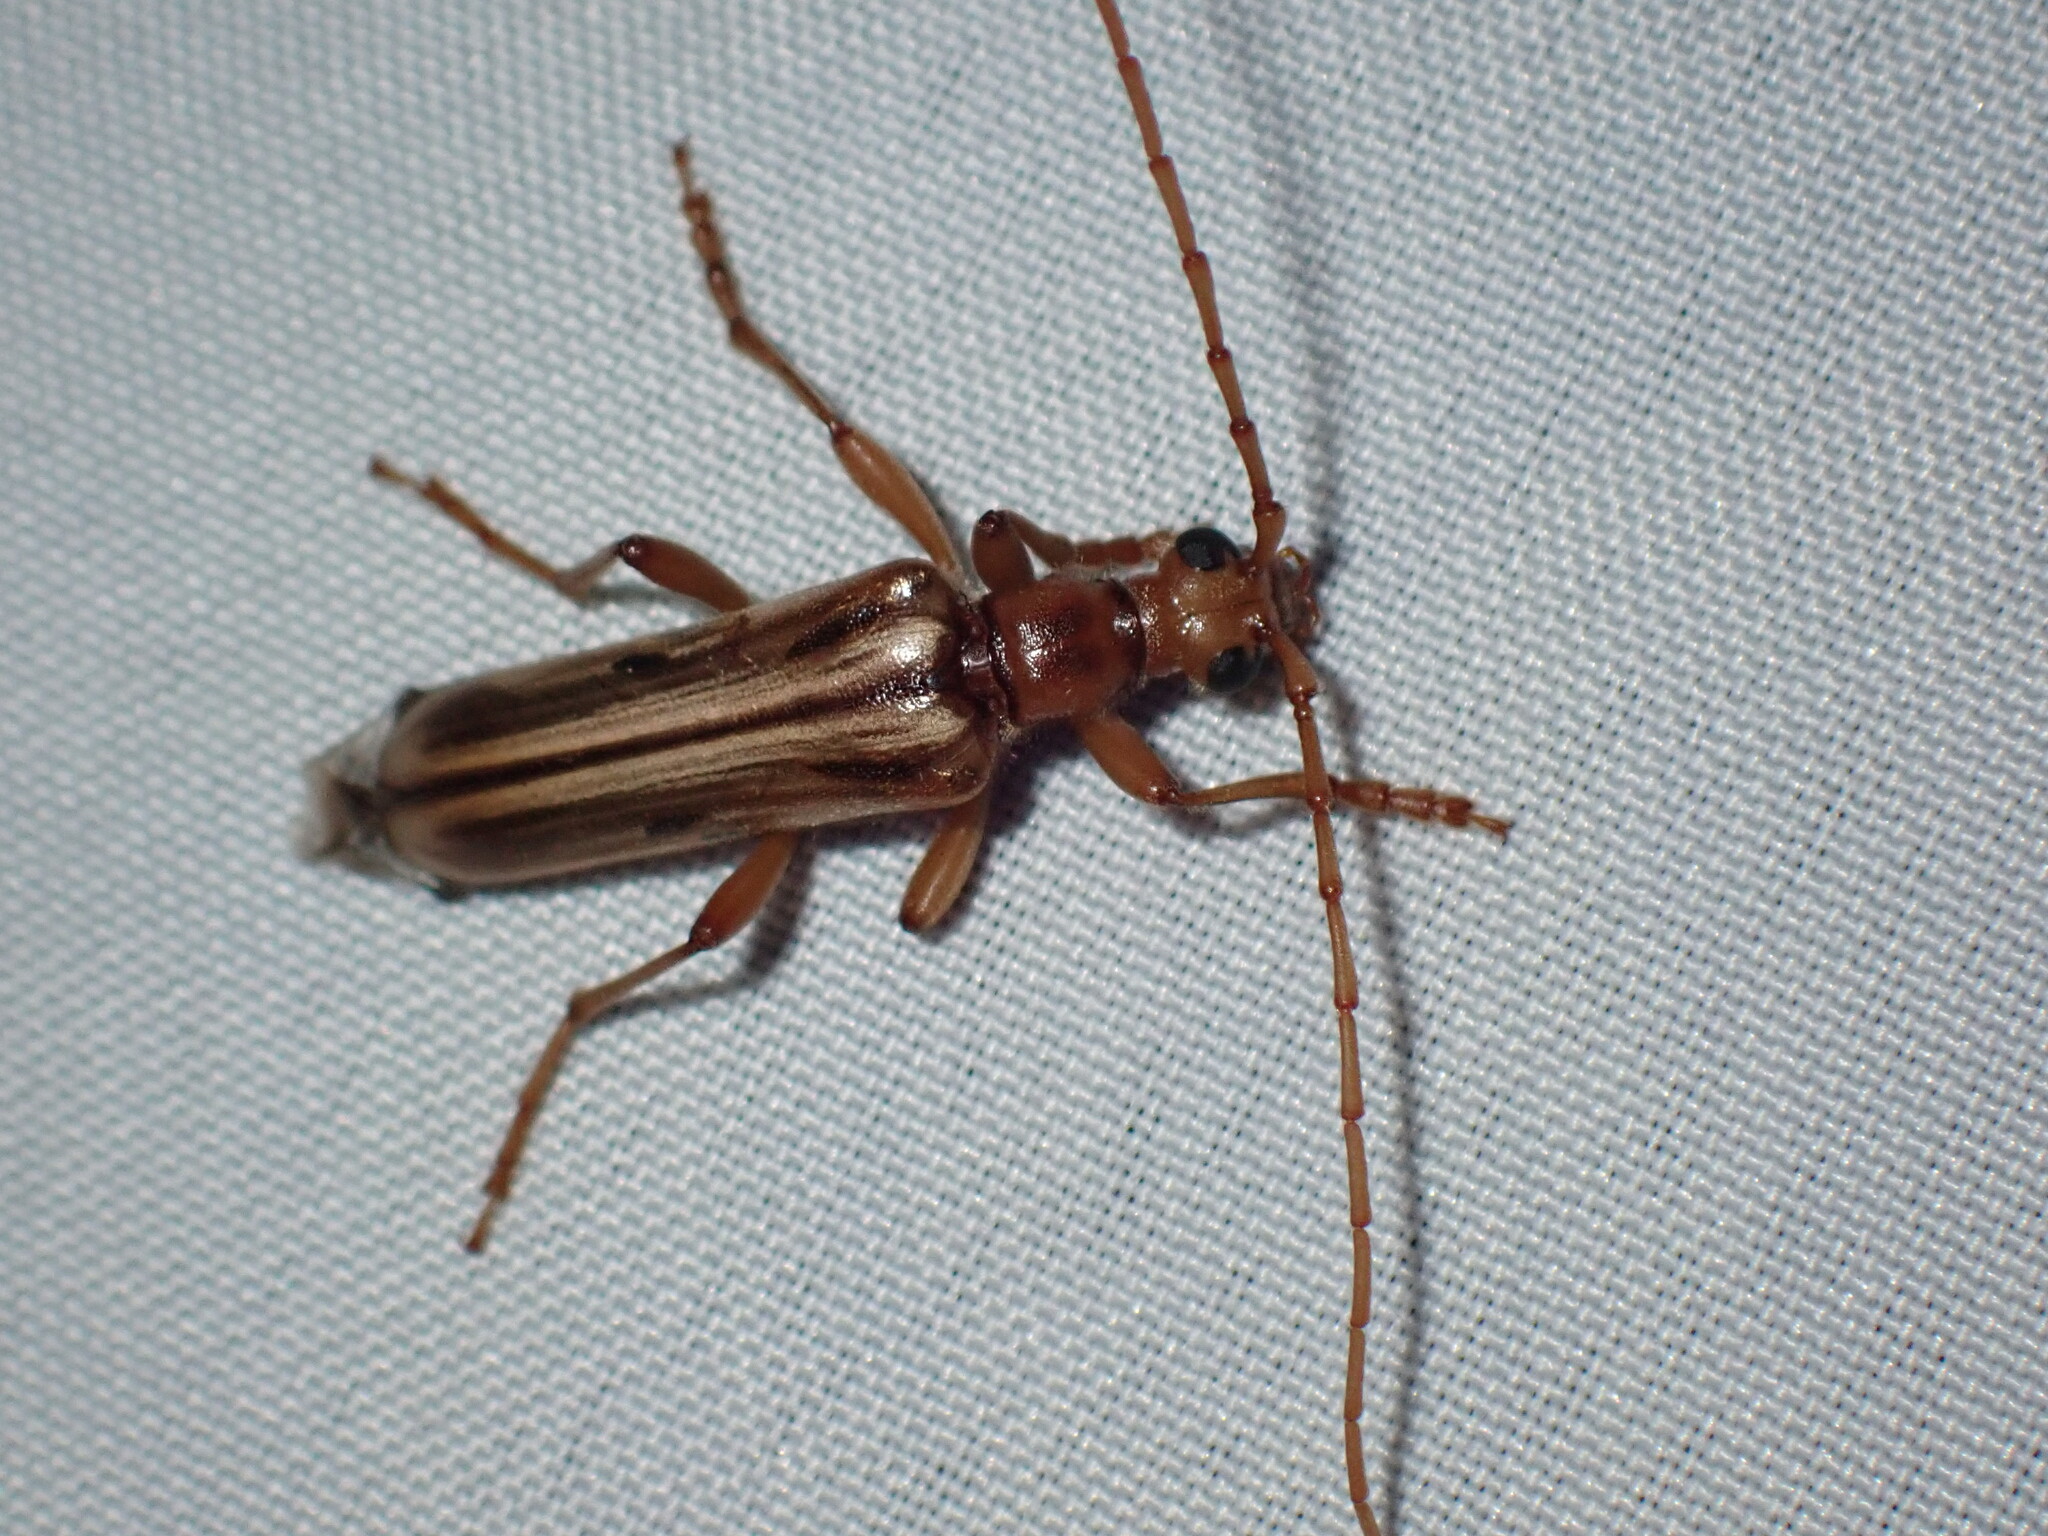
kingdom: Animalia
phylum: Arthropoda
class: Insecta
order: Coleoptera
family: Cerambycidae
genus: Ortholeptura
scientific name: Ortholeptura valida
